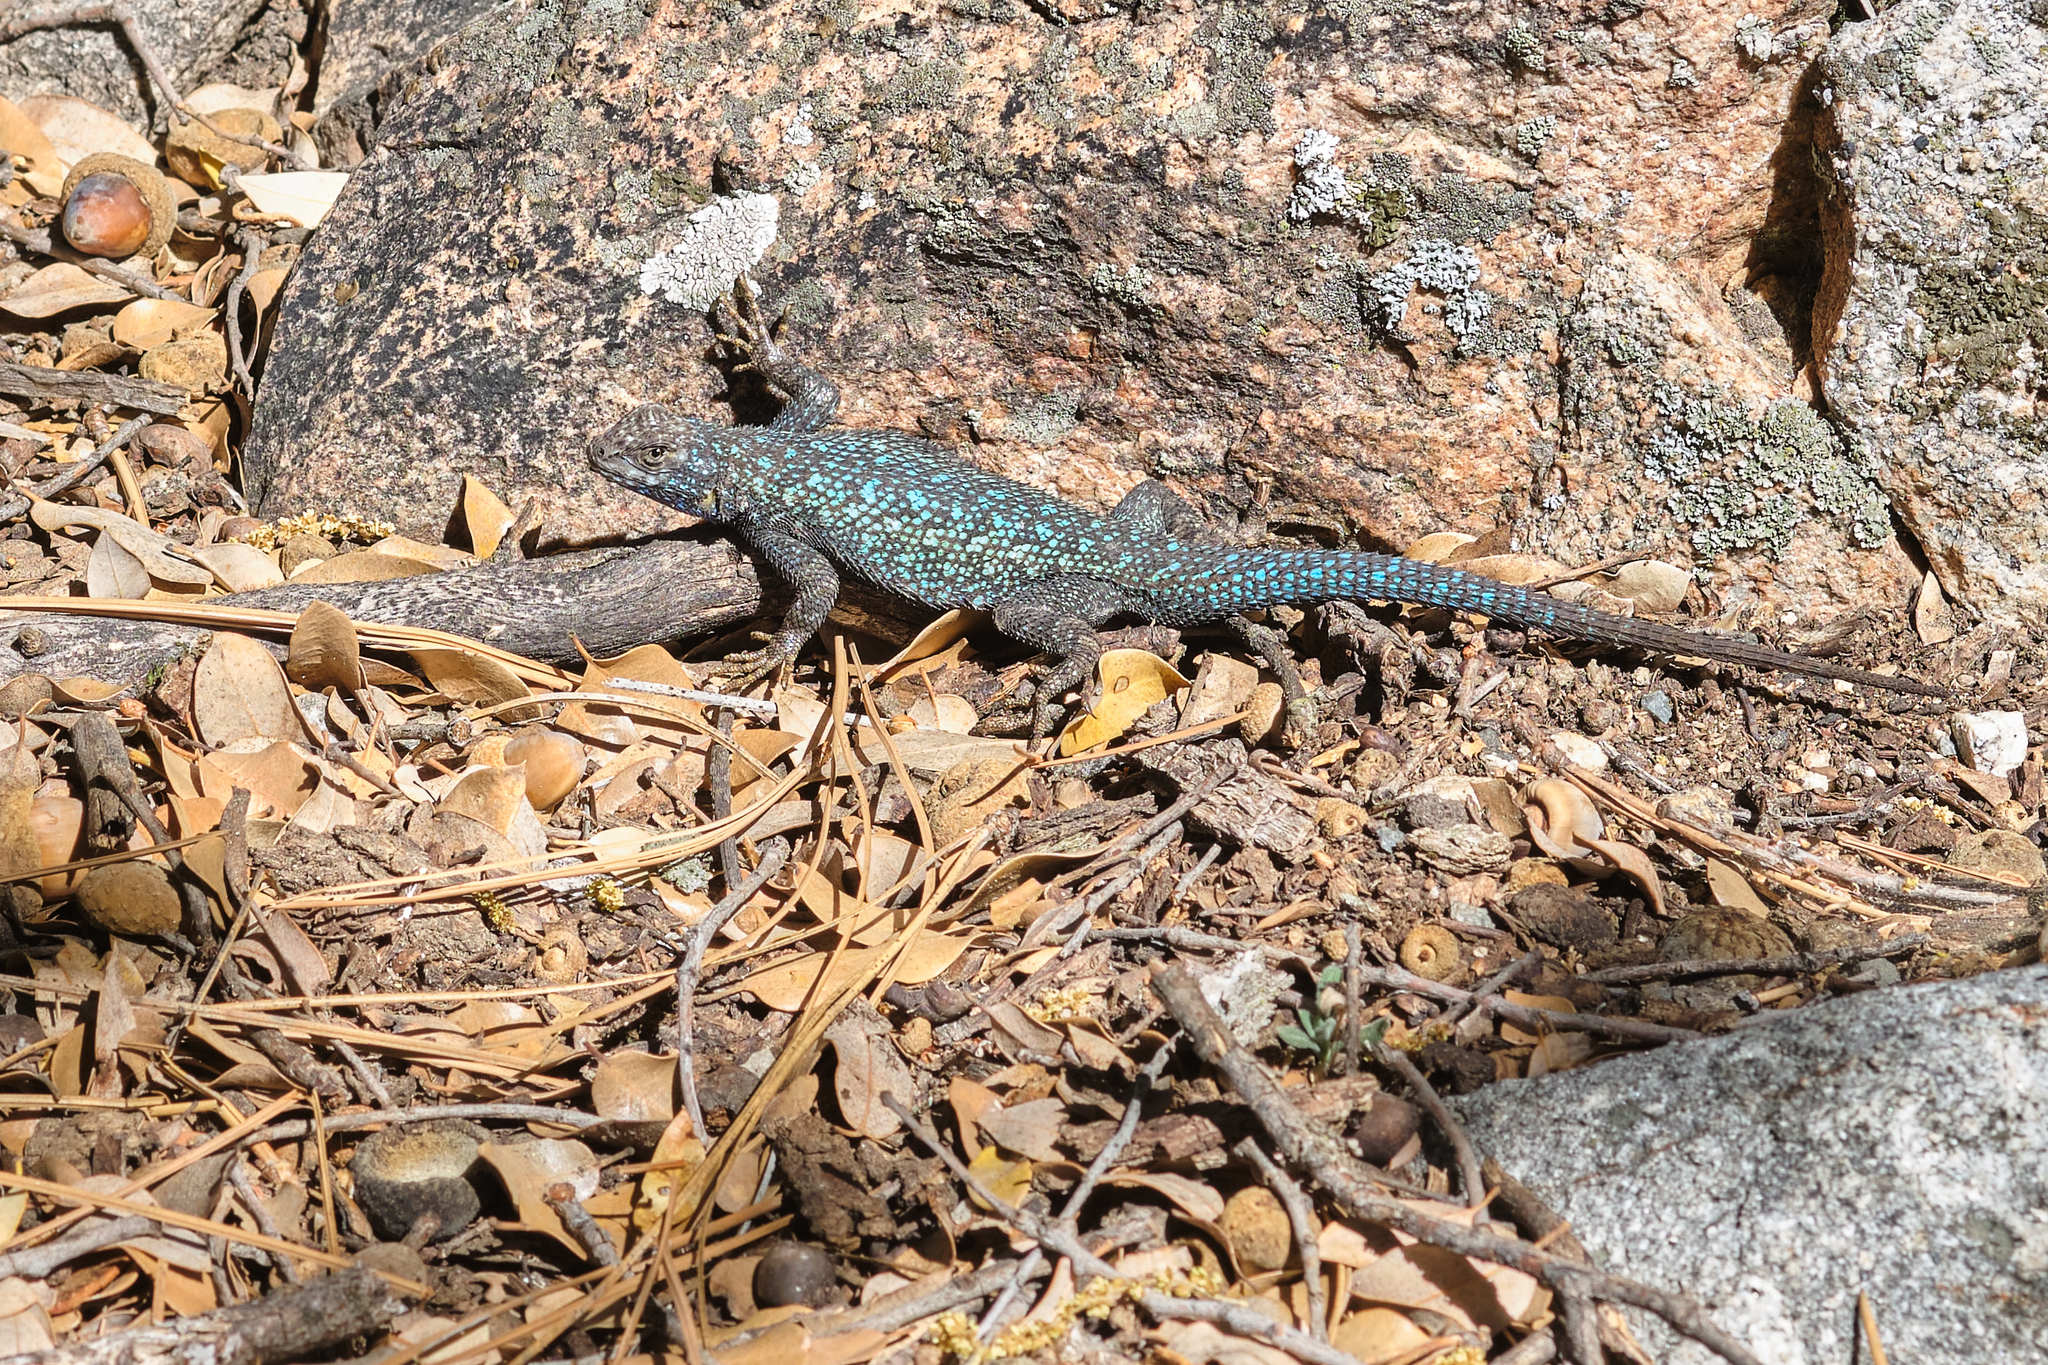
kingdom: Animalia
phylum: Chordata
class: Squamata
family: Phrynosomatidae
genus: Sceloporus
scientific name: Sceloporus occidentalis
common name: Western fence lizard
